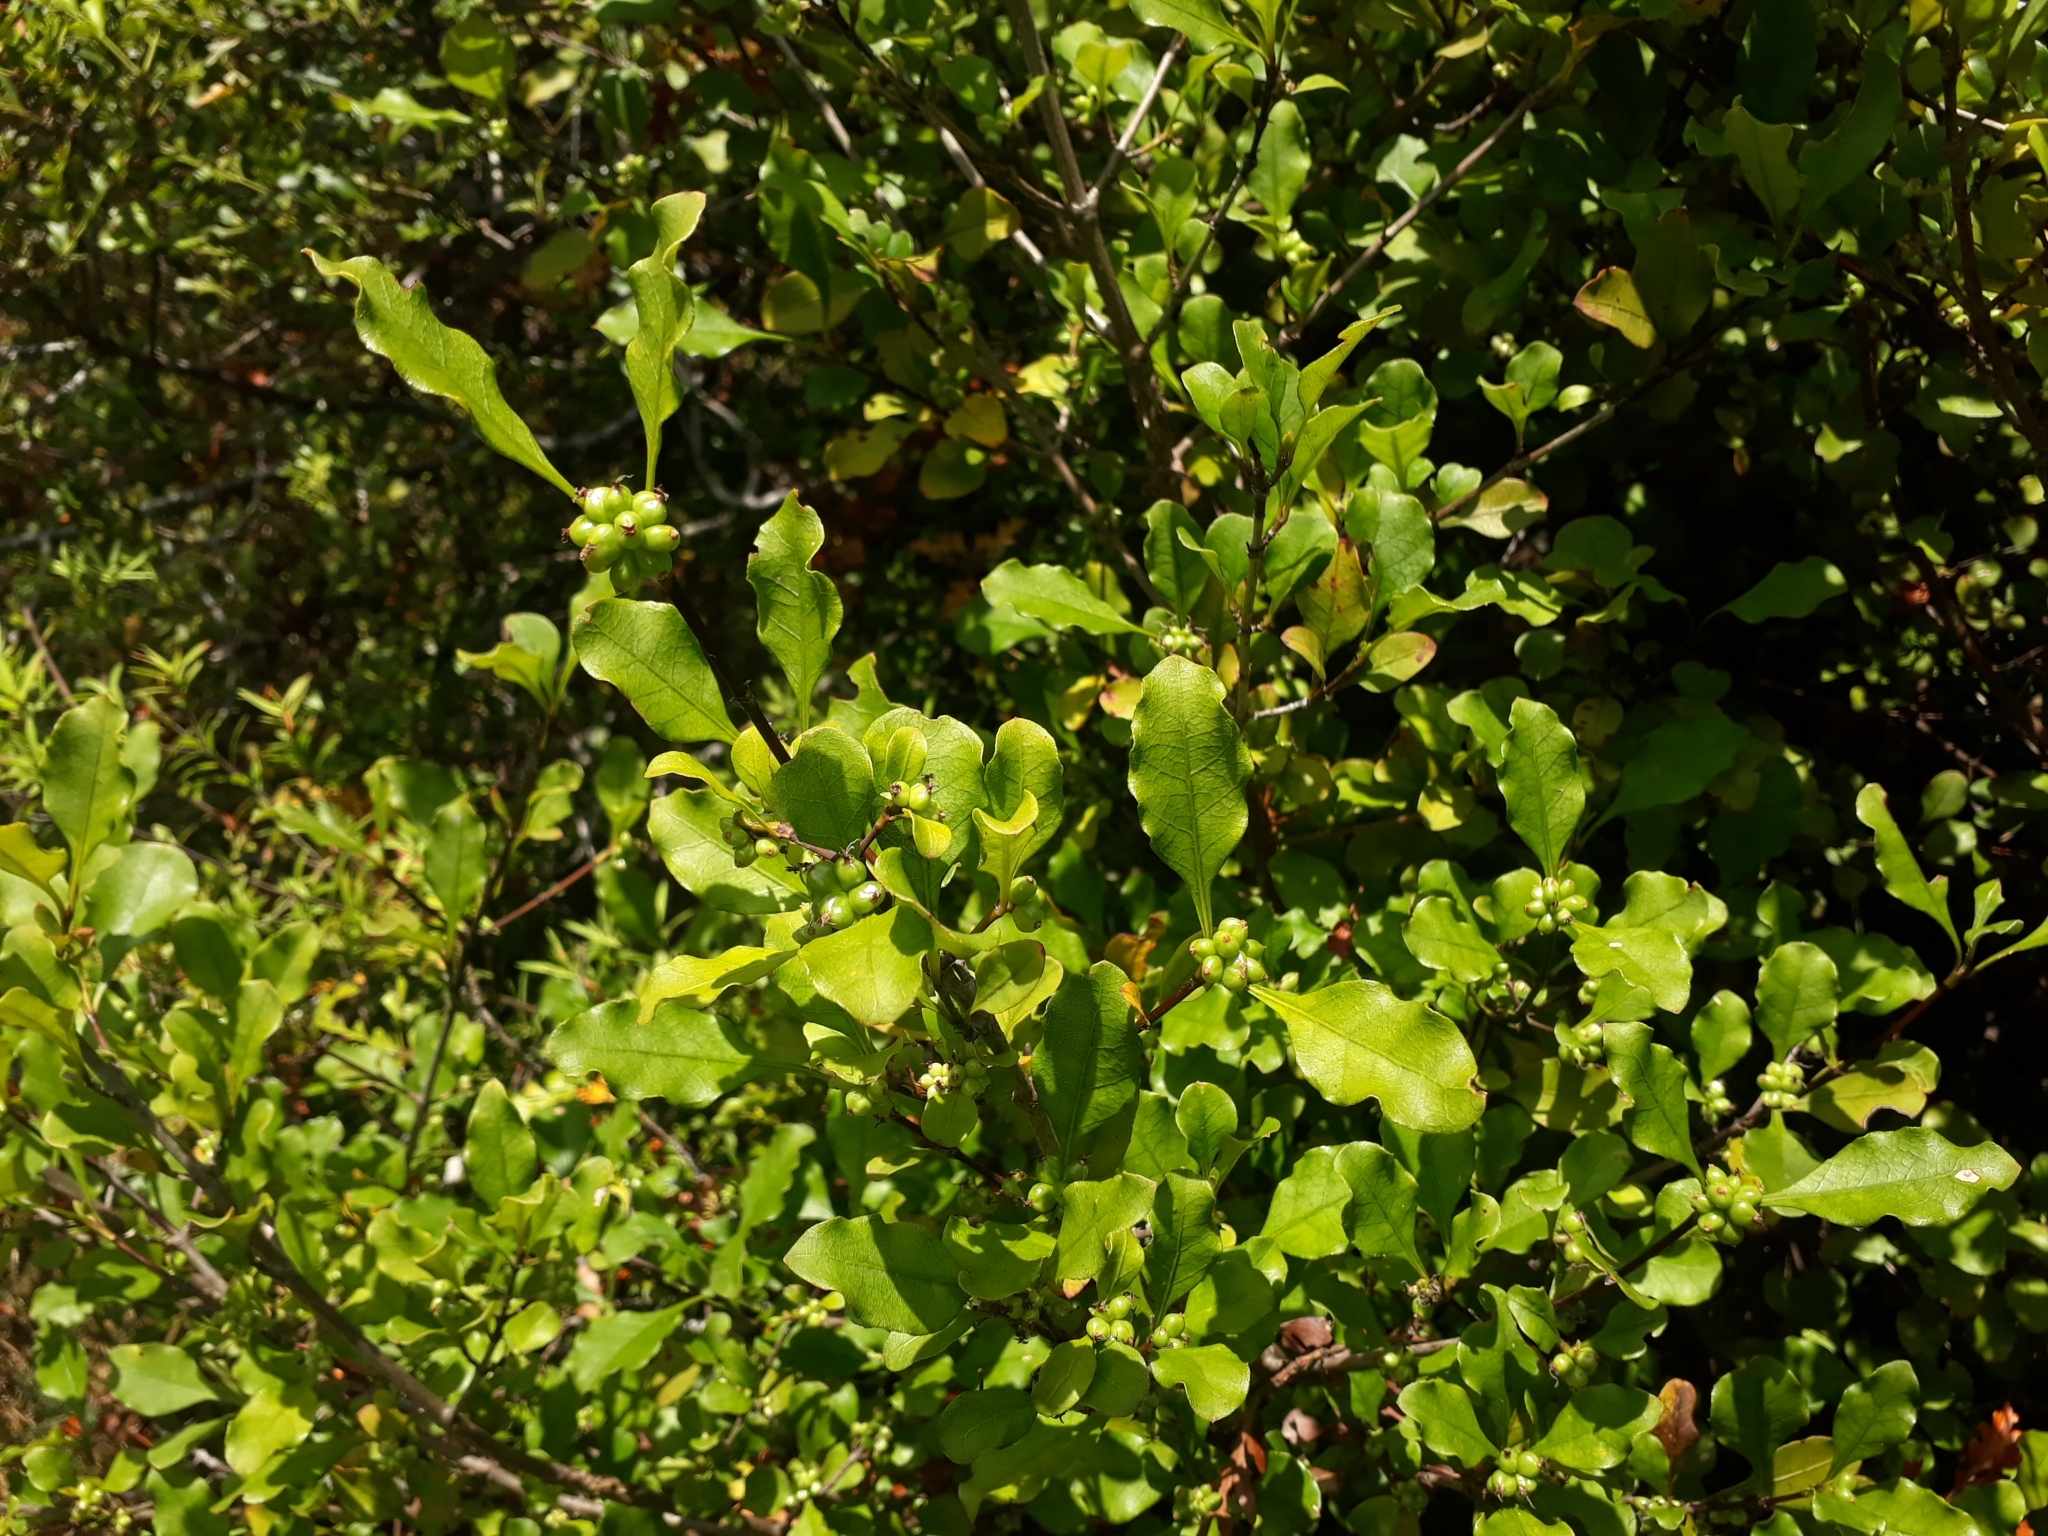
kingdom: Plantae
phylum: Tracheophyta
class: Magnoliopsida
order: Gentianales
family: Rubiaceae
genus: Coprosma
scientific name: Coprosma arborea
